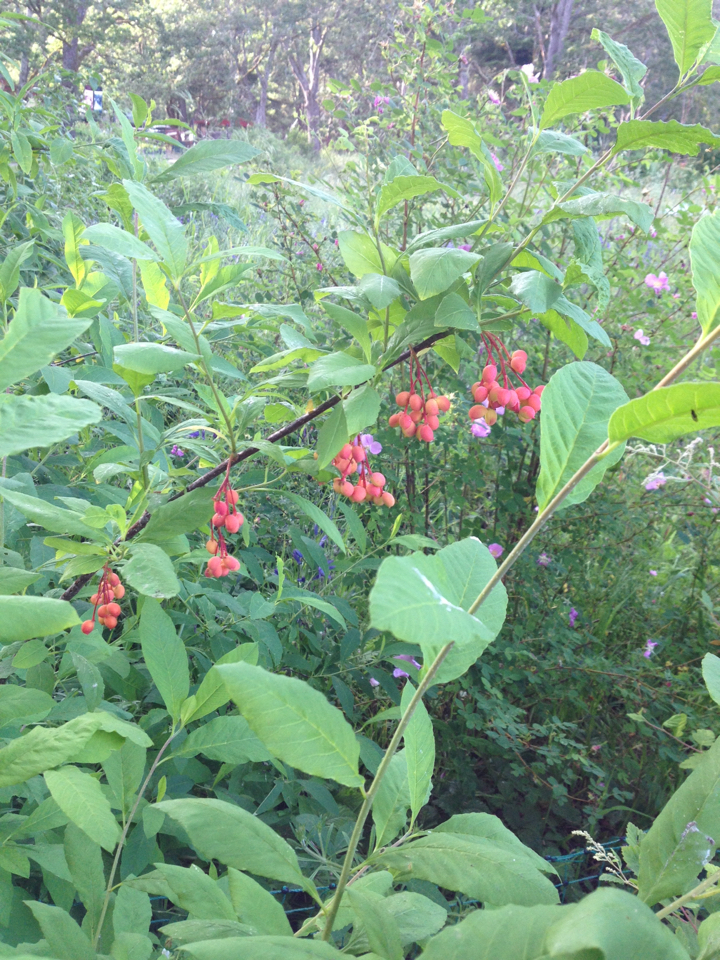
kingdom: Plantae
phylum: Tracheophyta
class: Magnoliopsida
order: Rosales
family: Rosaceae
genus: Oemleria
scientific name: Oemleria cerasiformis
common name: Osoberry
